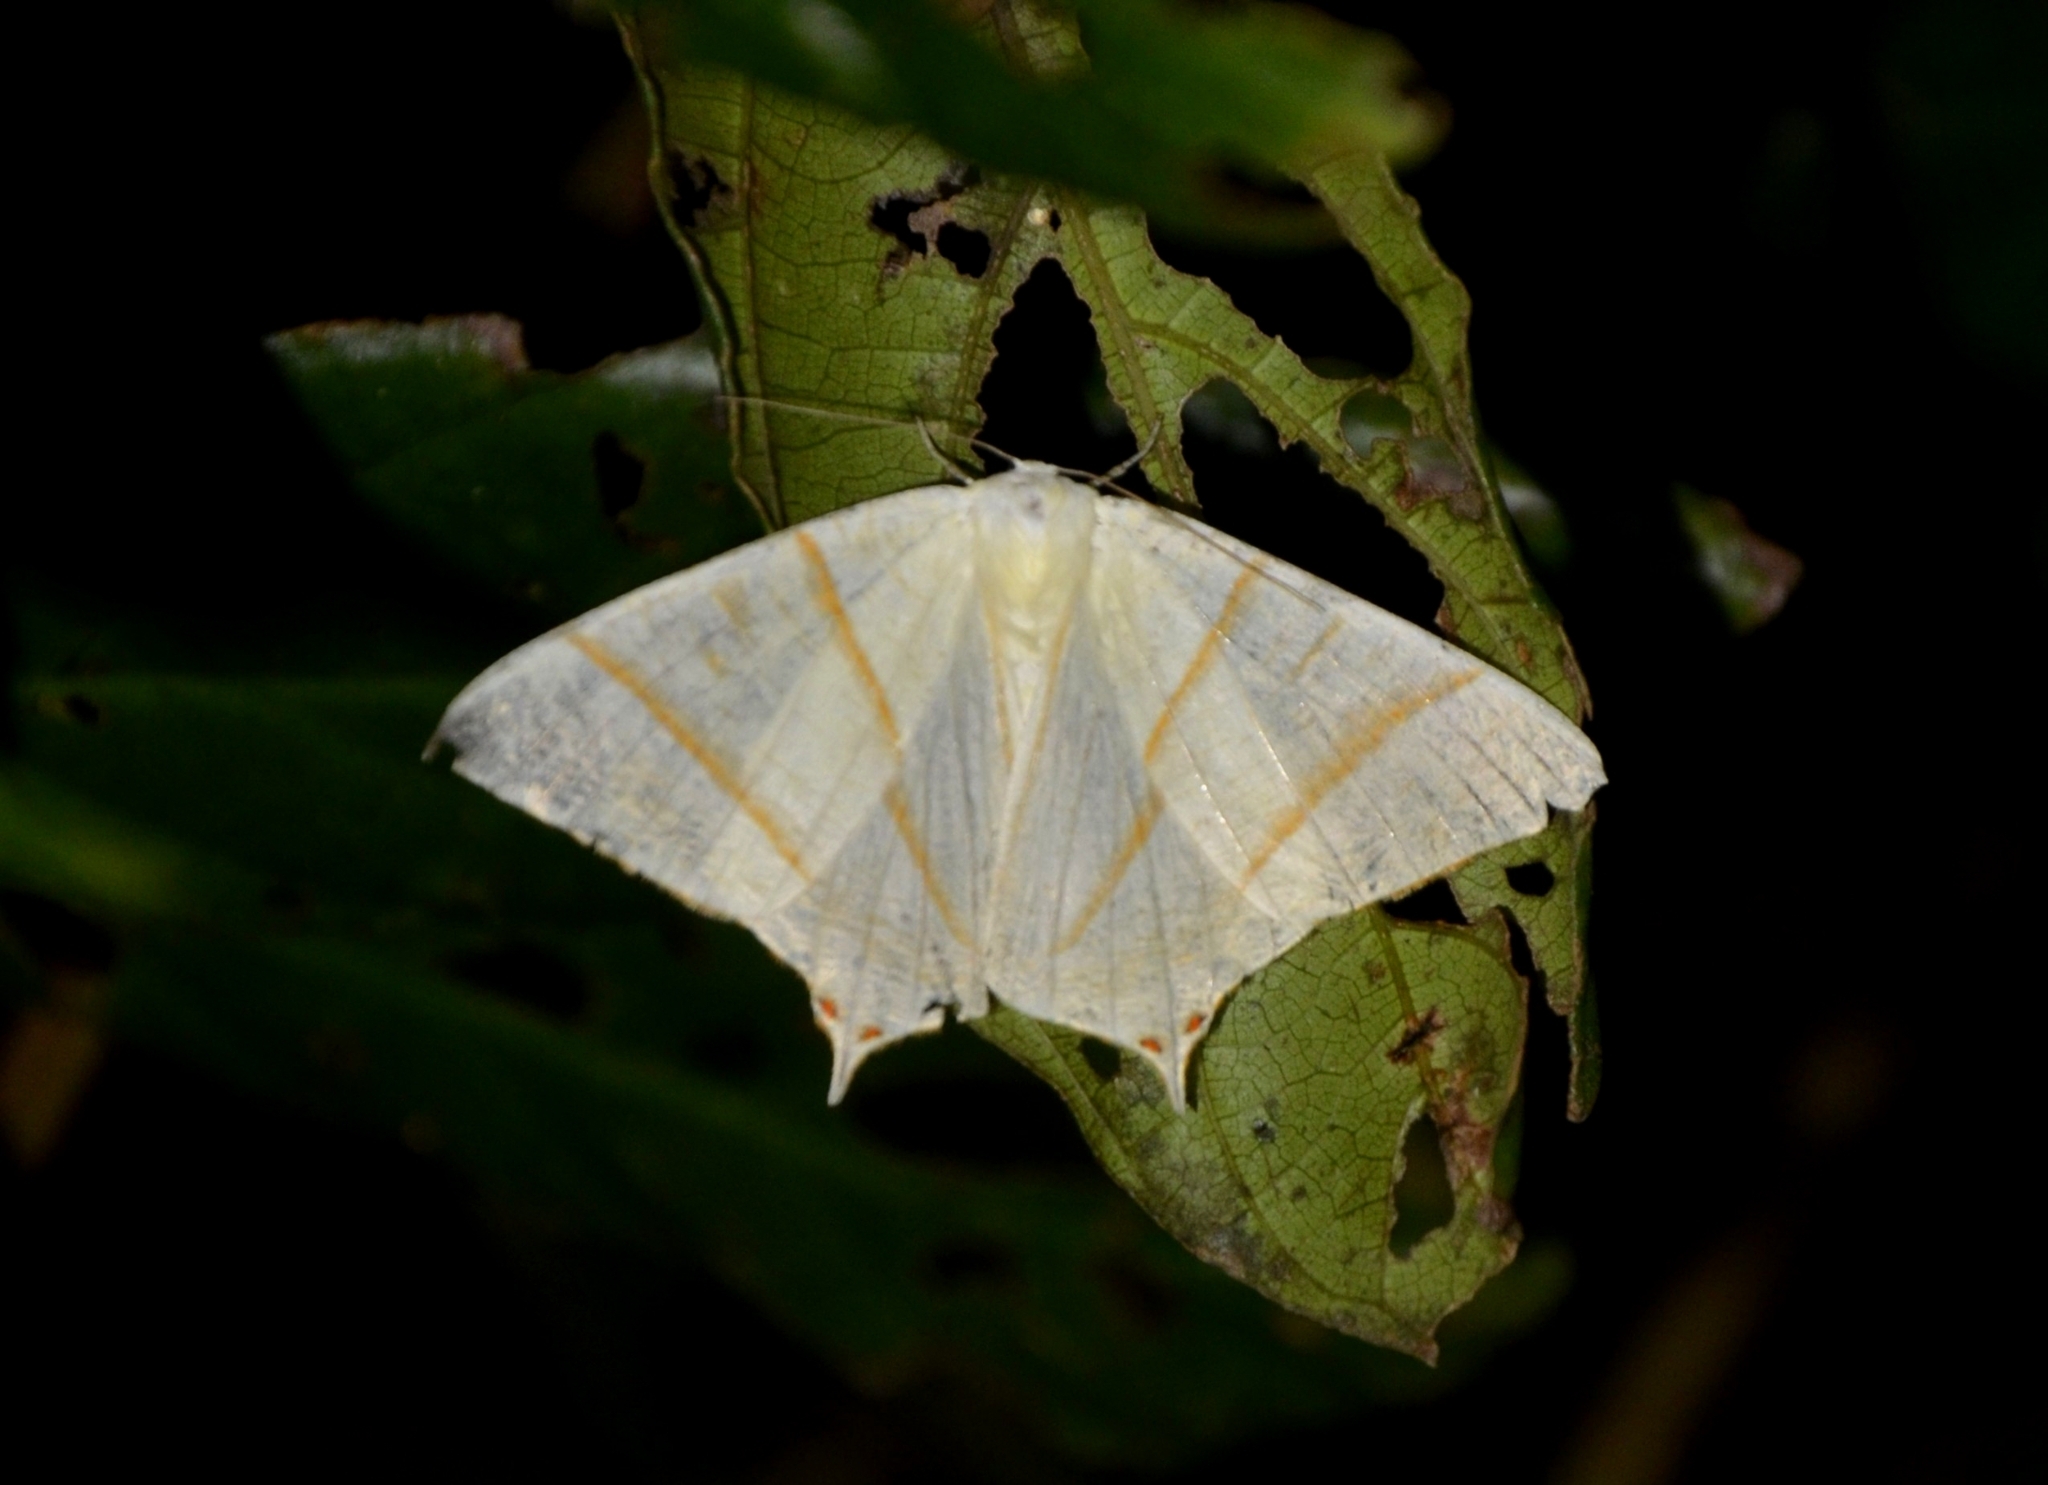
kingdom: Animalia
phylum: Arthropoda
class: Insecta
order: Lepidoptera
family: Geometridae
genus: Ourapteryx
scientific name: Ourapteryx peermaadiata
